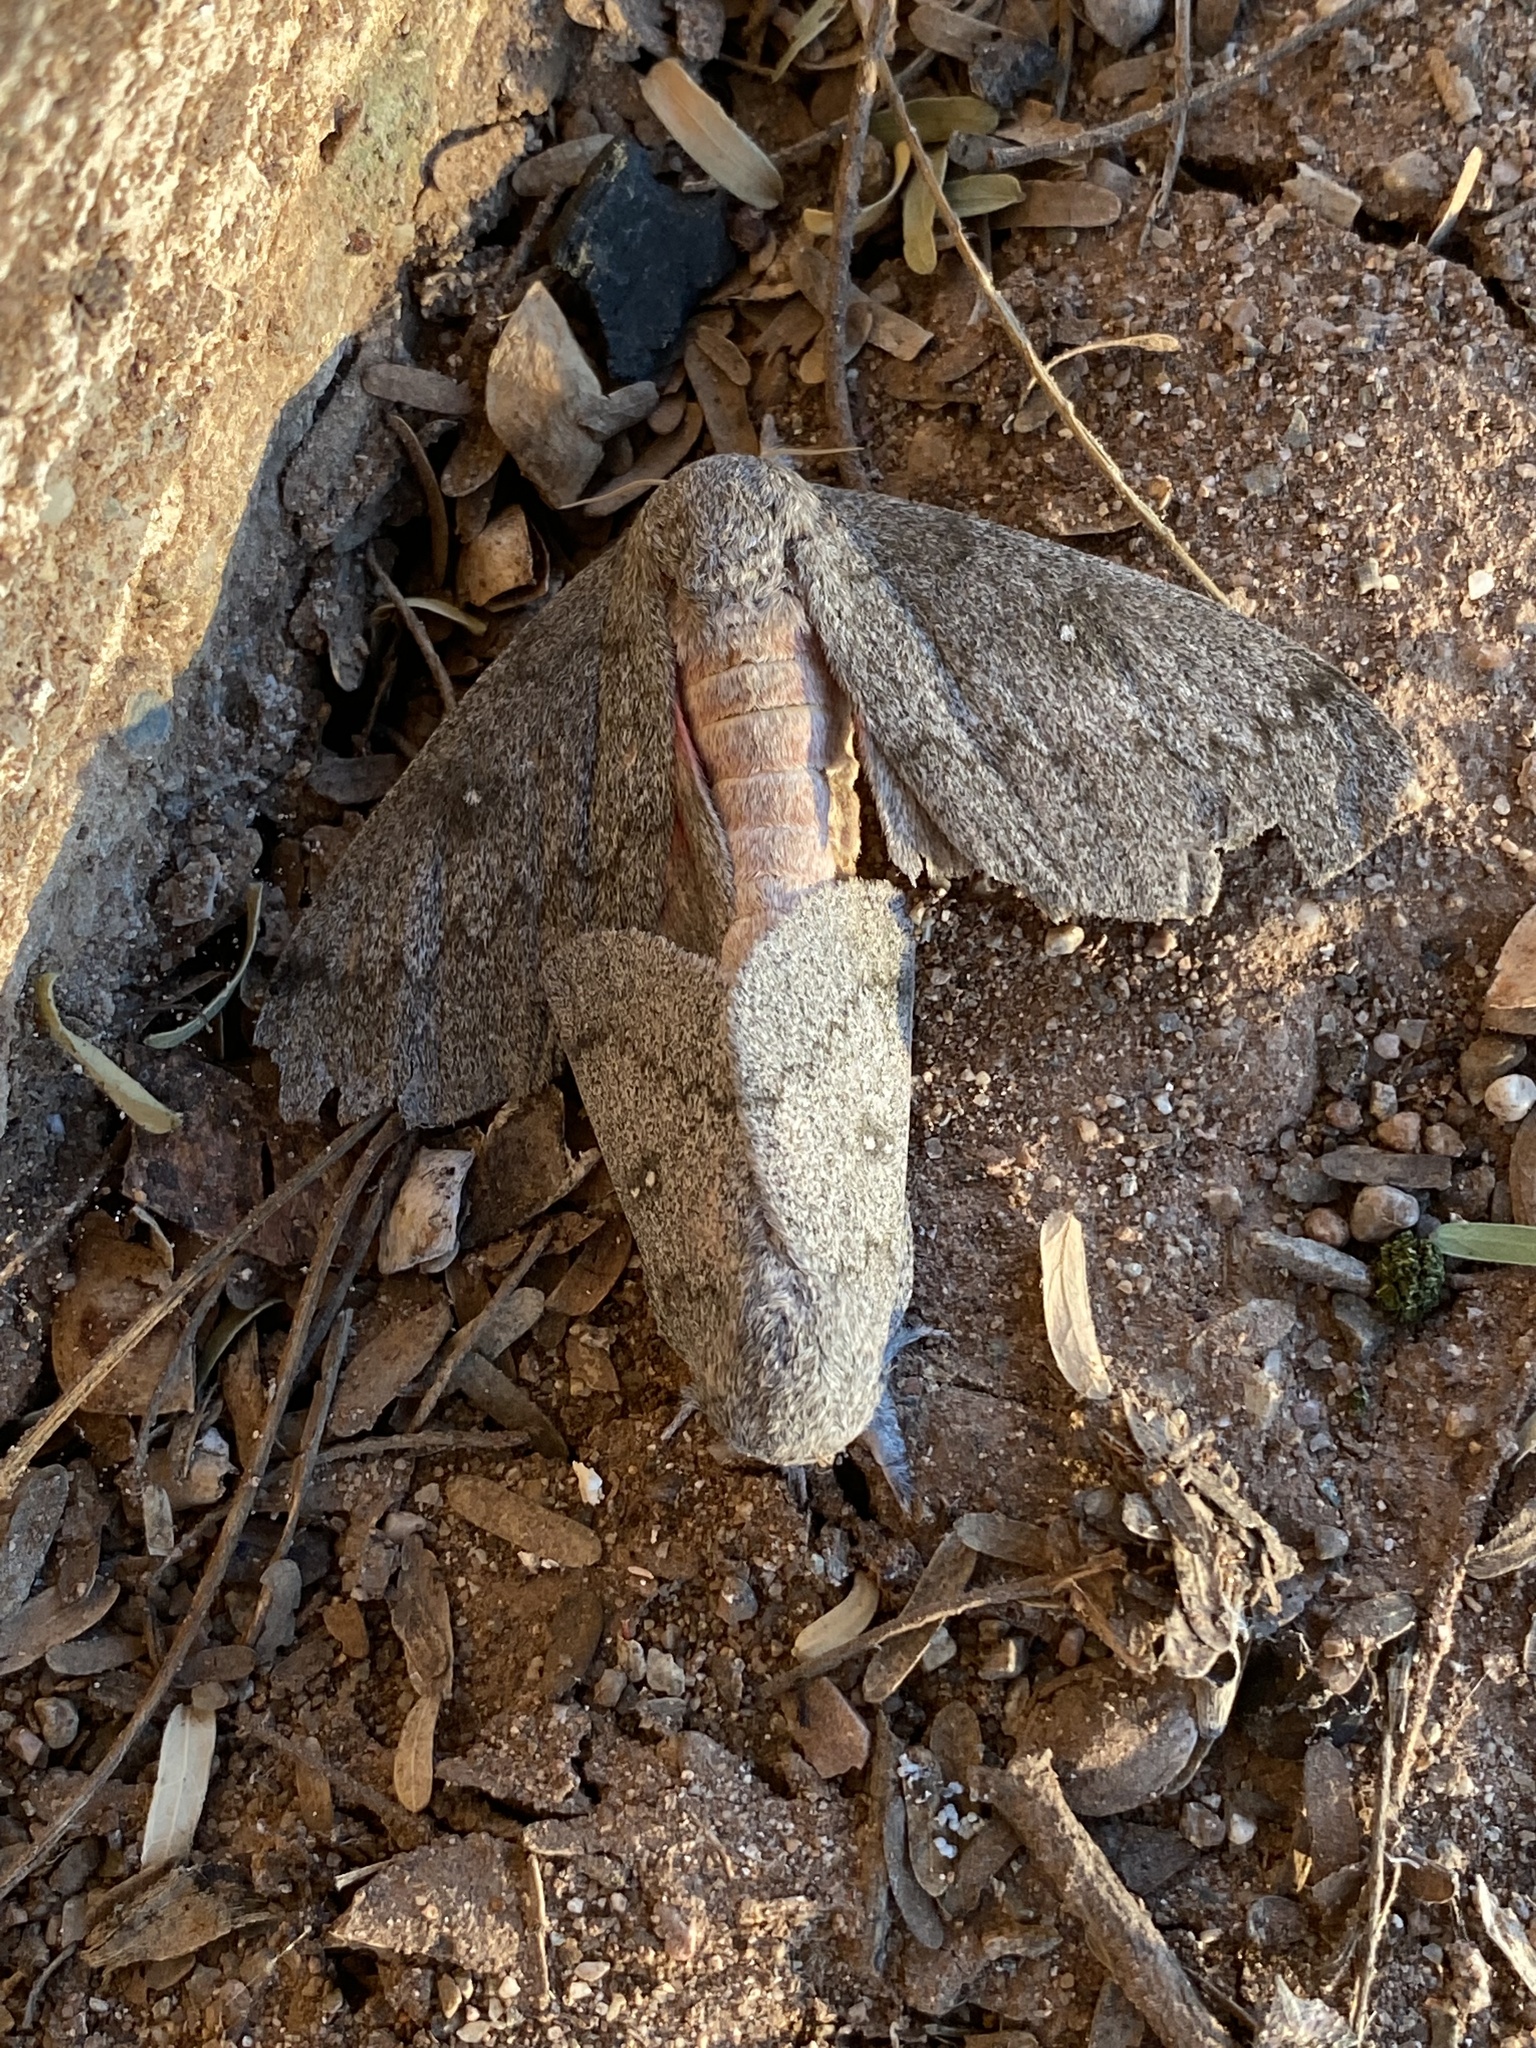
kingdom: Animalia
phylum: Arthropoda
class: Insecta
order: Lepidoptera
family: Saturniidae
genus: Syssphinx
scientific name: Syssphinx hubbardi
